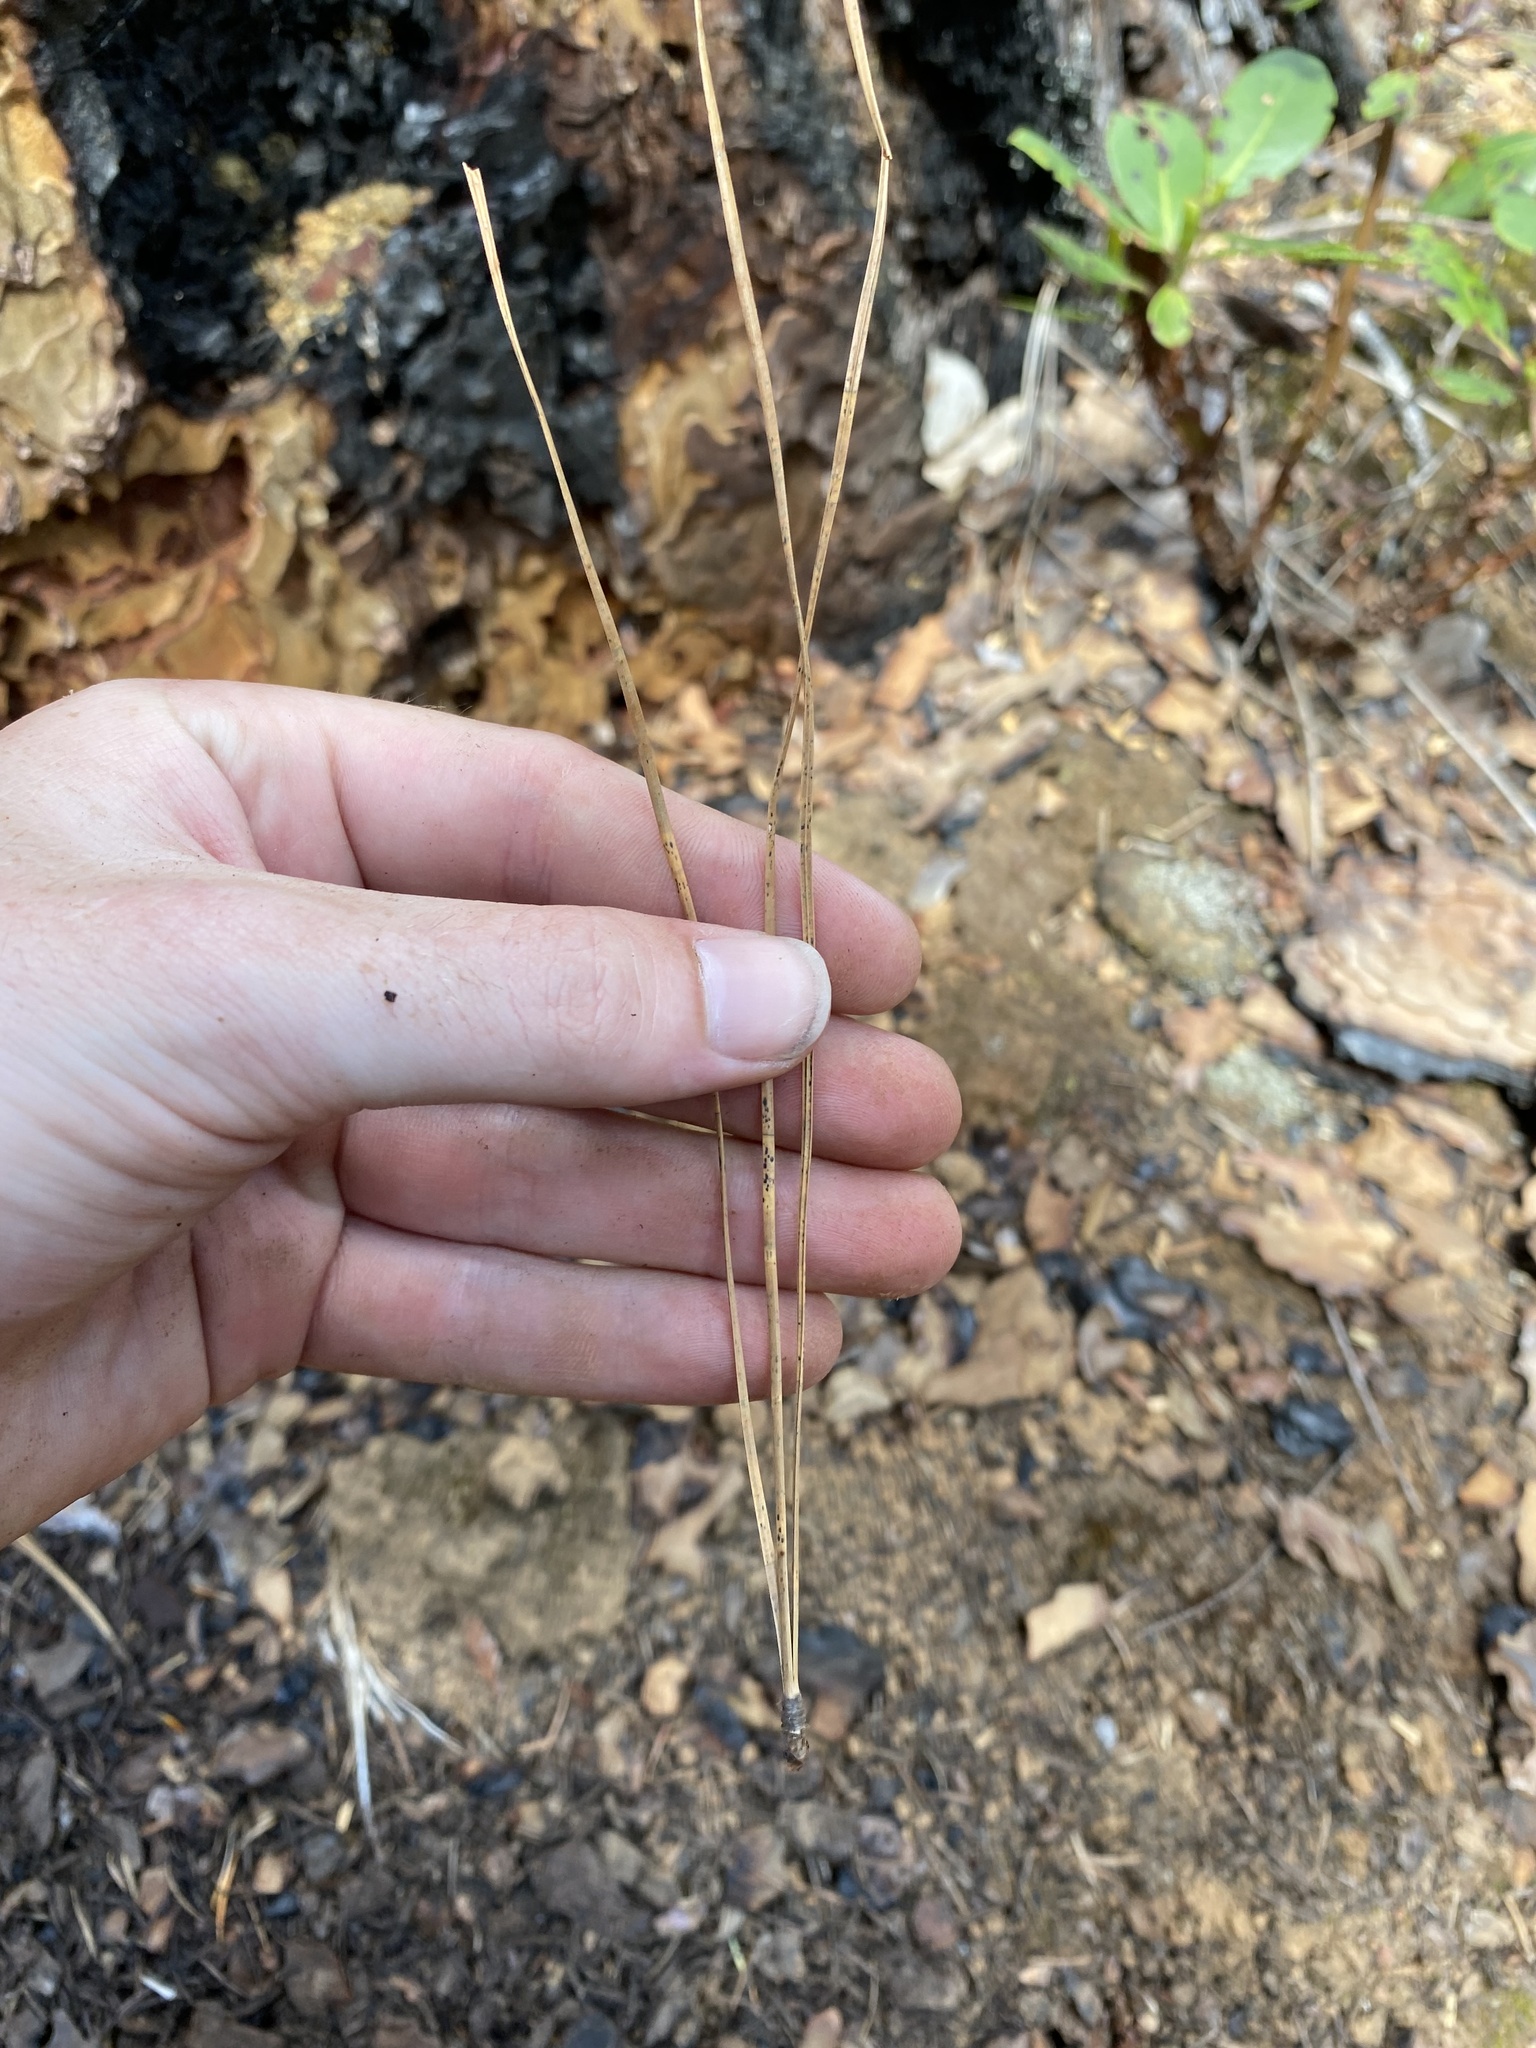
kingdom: Plantae
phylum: Tracheophyta
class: Pinopsida
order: Pinales
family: Pinaceae
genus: Pinus
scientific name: Pinus ponderosa
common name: Western yellow-pine
